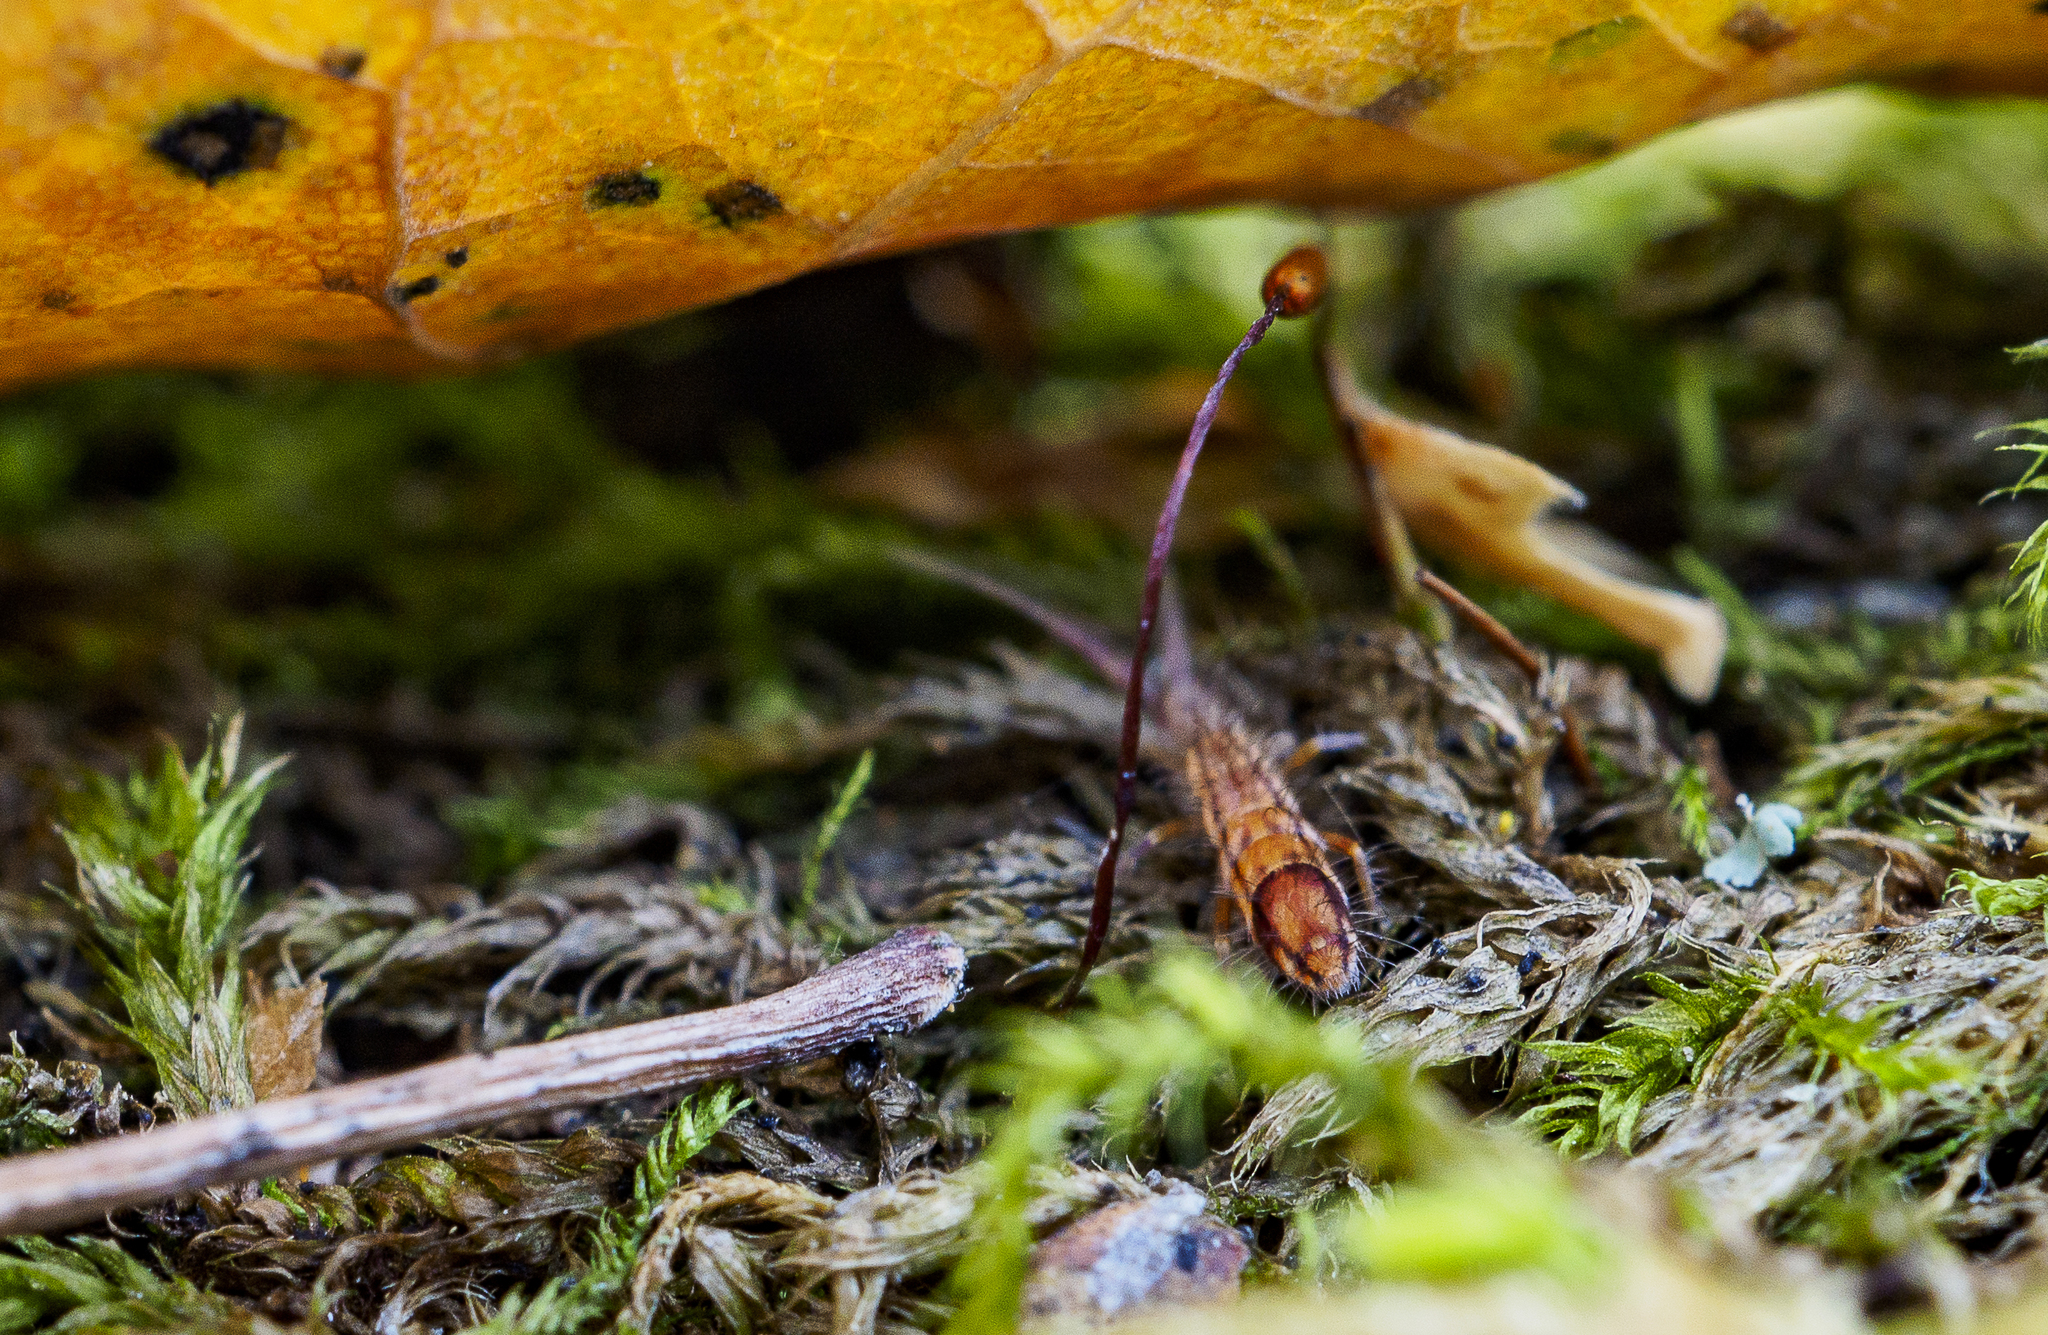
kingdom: Animalia
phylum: Arthropoda
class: Collembola
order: Entomobryomorpha
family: Entomobryidae
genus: Entomobrya
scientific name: Entomobrya nivalis
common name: Cosmopolitan springtail
